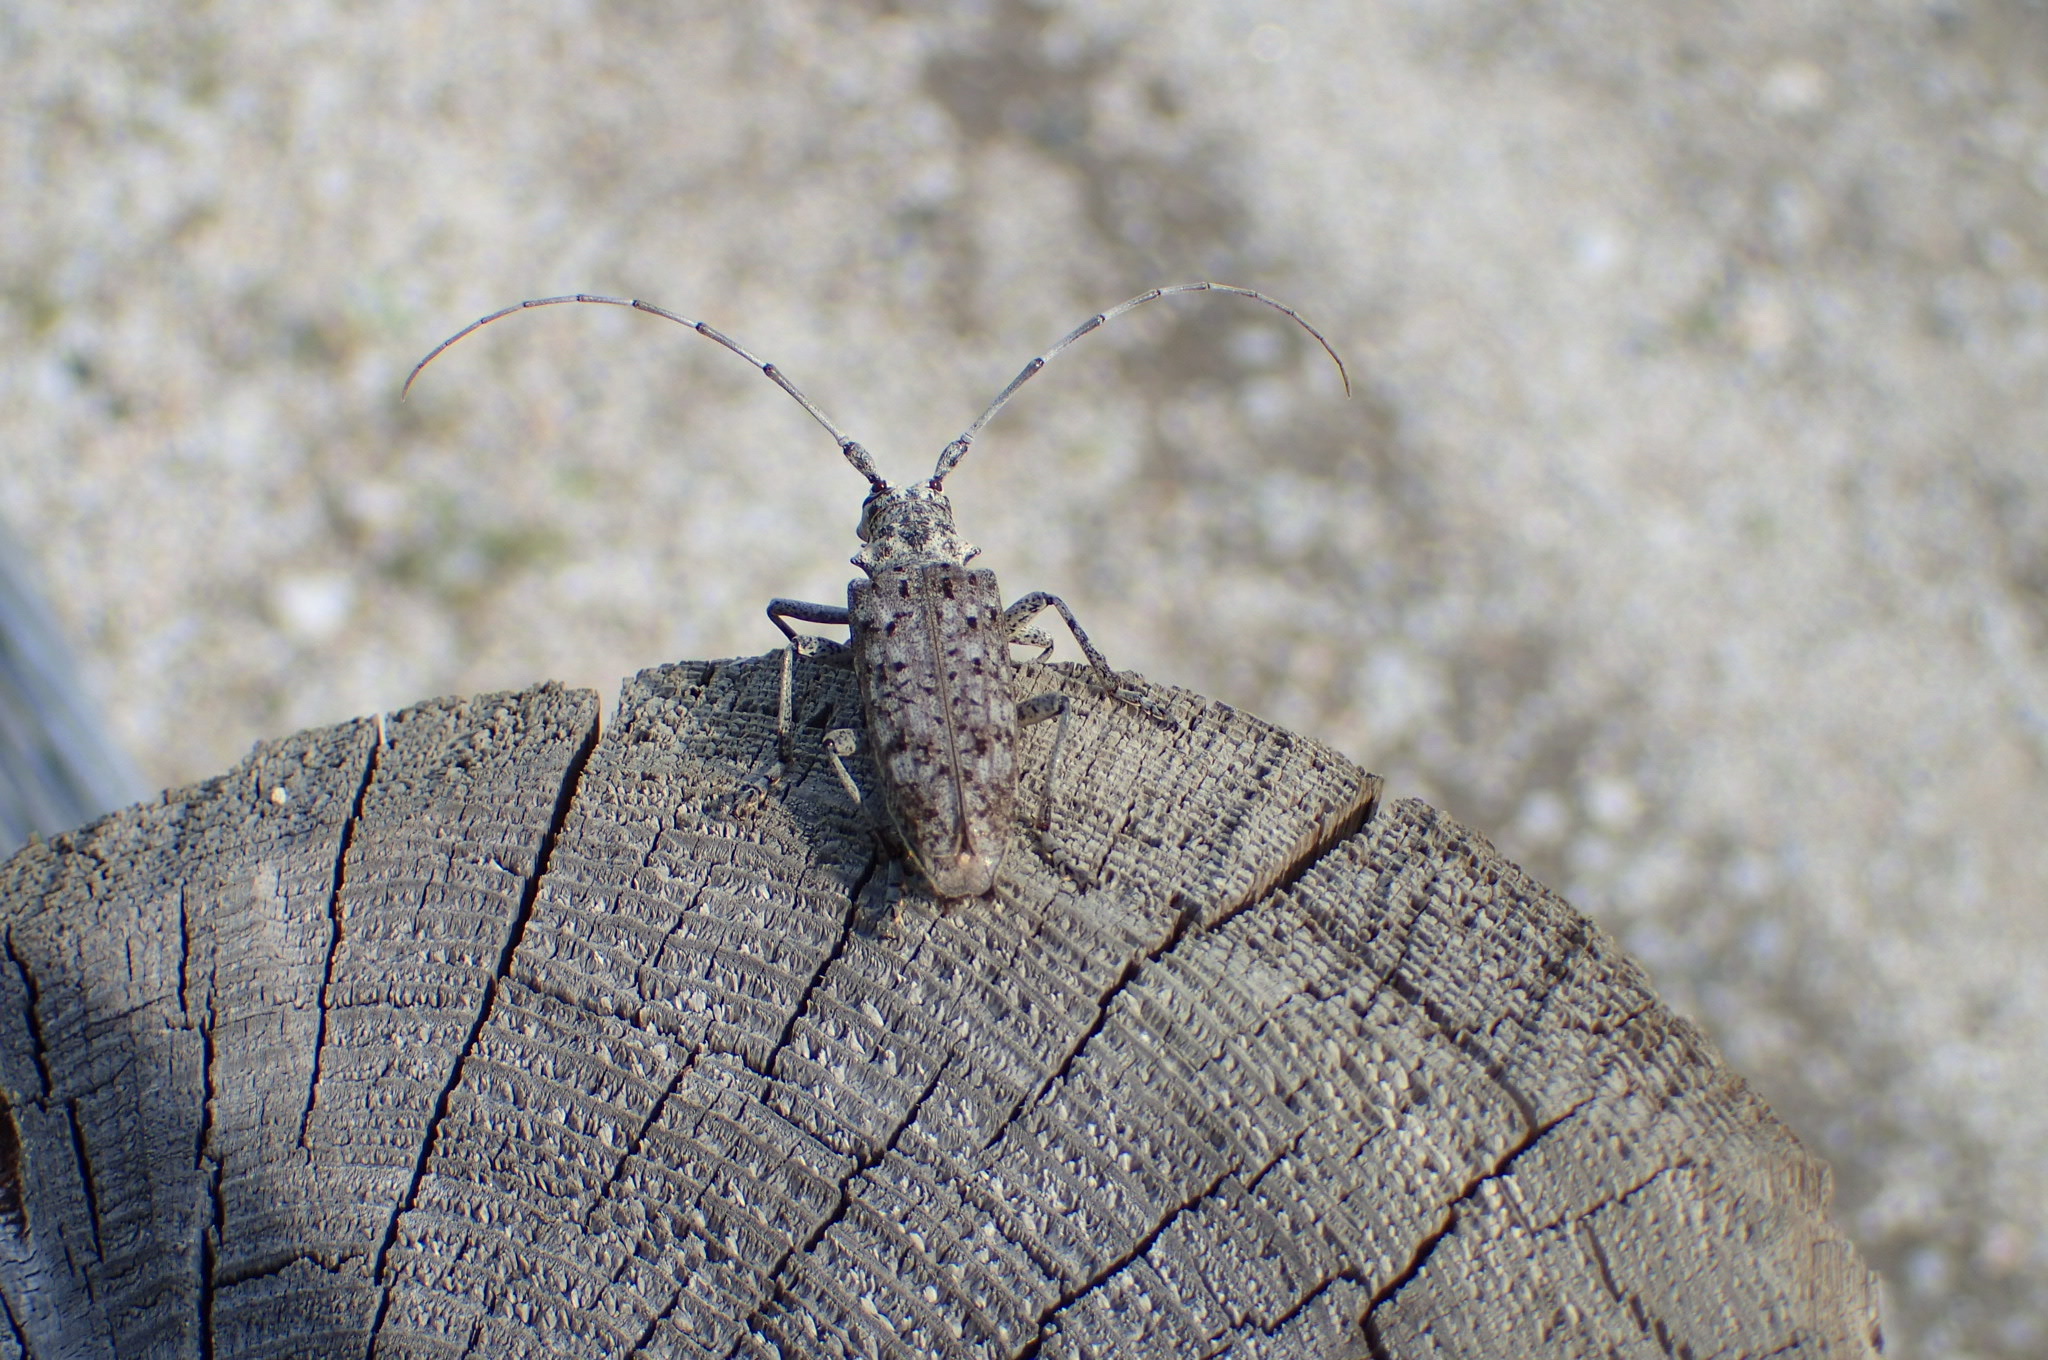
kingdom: Animalia
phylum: Arthropoda
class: Insecta
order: Coleoptera
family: Cerambycidae
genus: Monochamus
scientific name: Monochamus notatus
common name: Northeastern pine sawyer beetle
